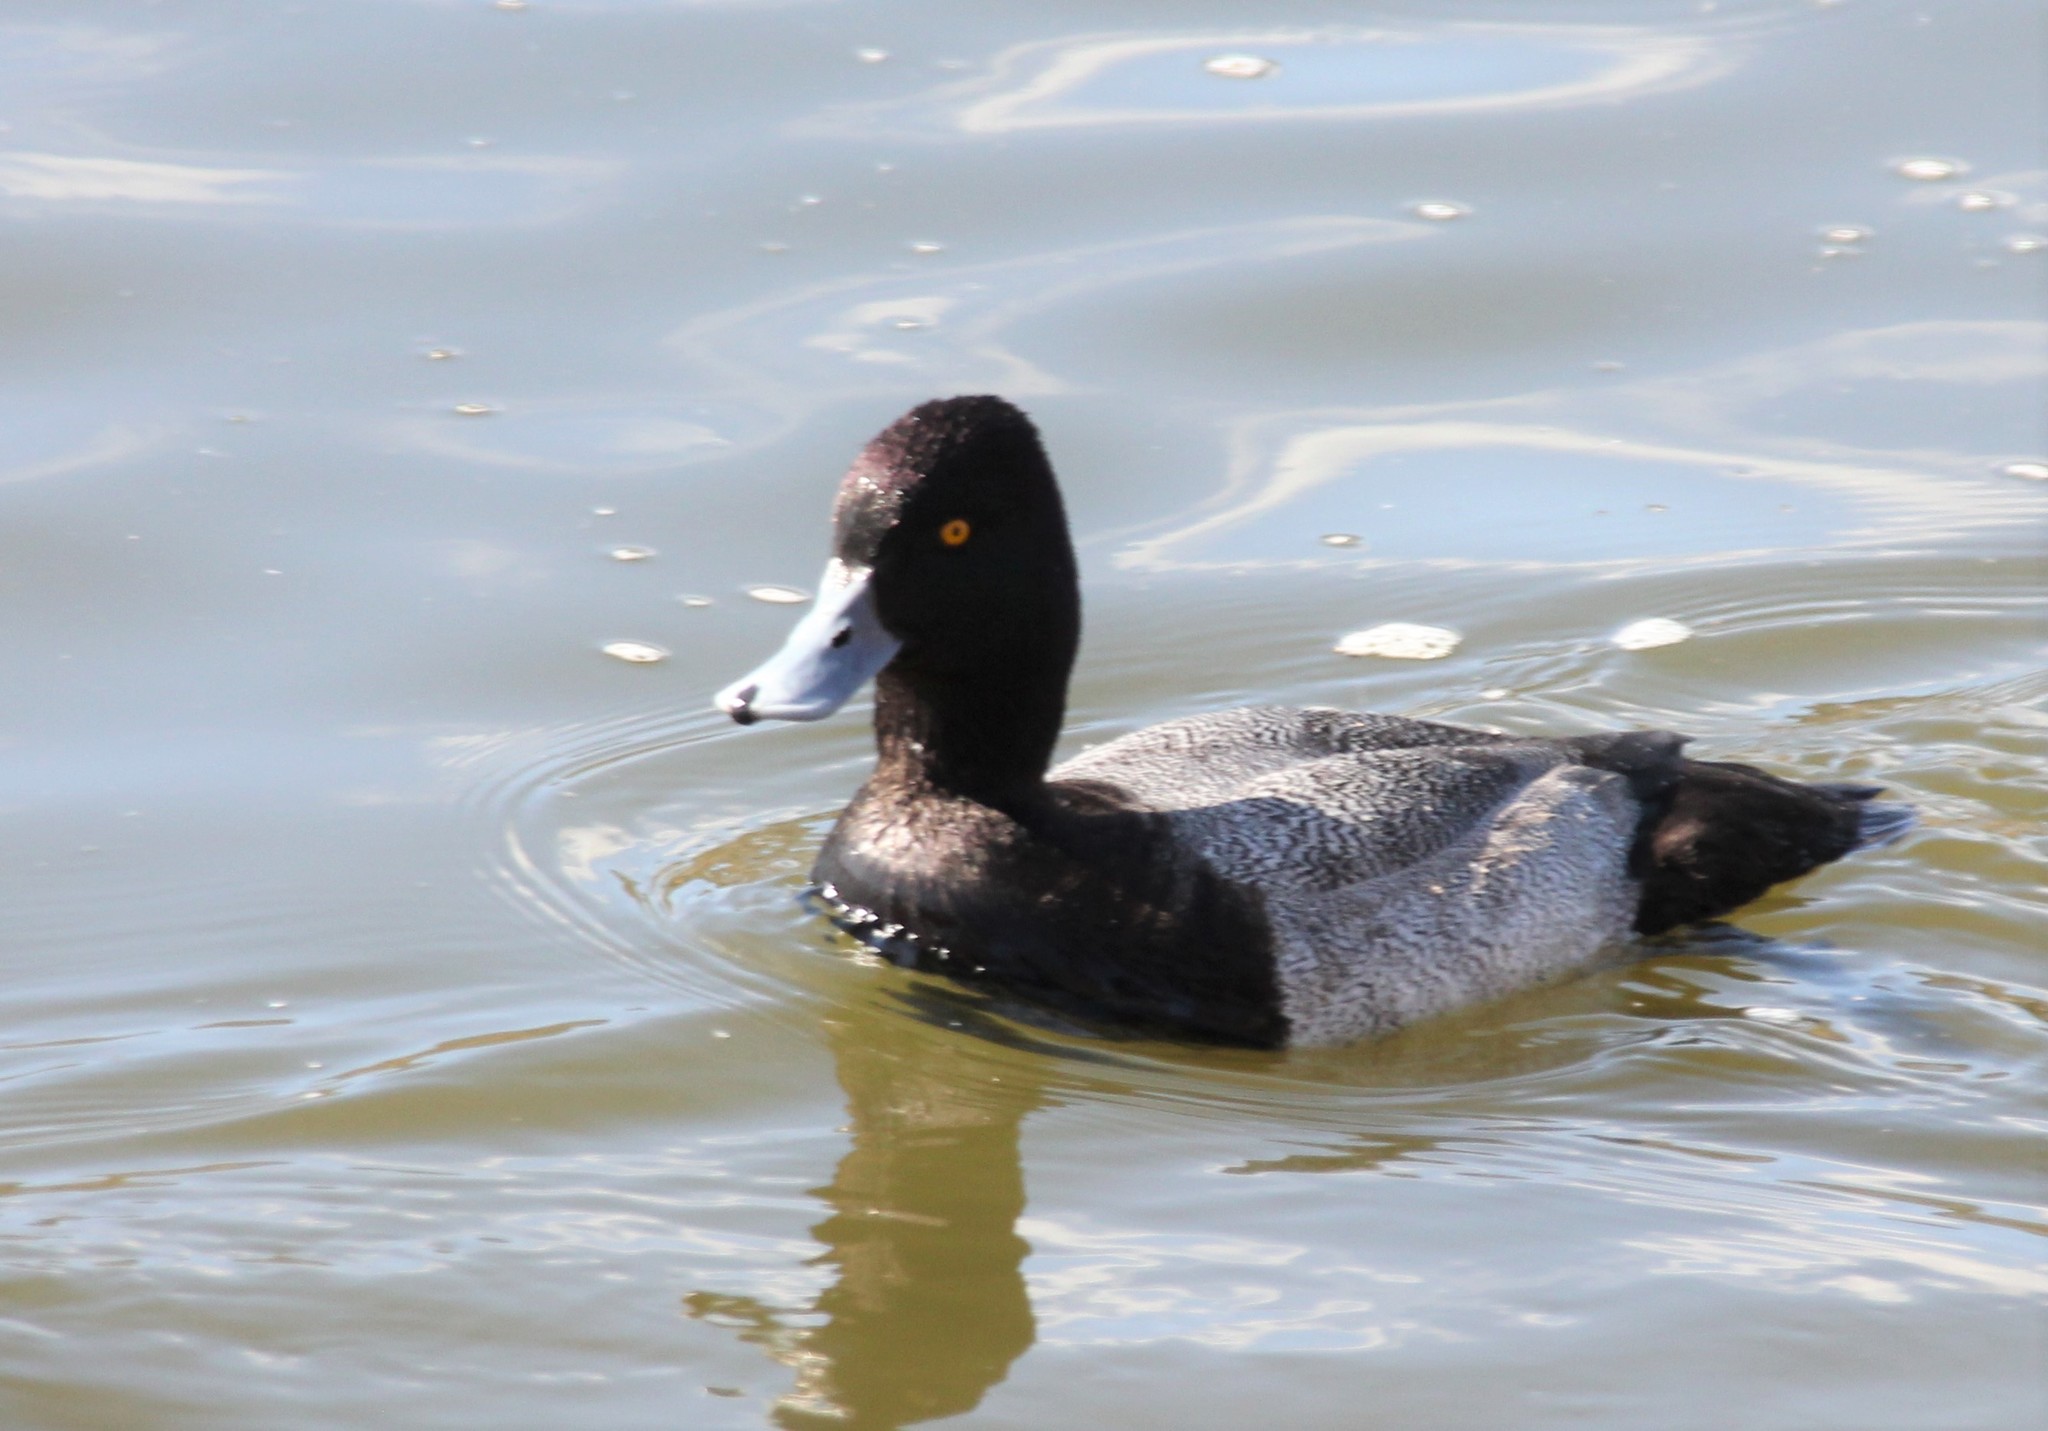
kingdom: Animalia
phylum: Chordata
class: Aves
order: Anseriformes
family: Anatidae
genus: Aythya
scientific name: Aythya affinis
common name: Lesser scaup
